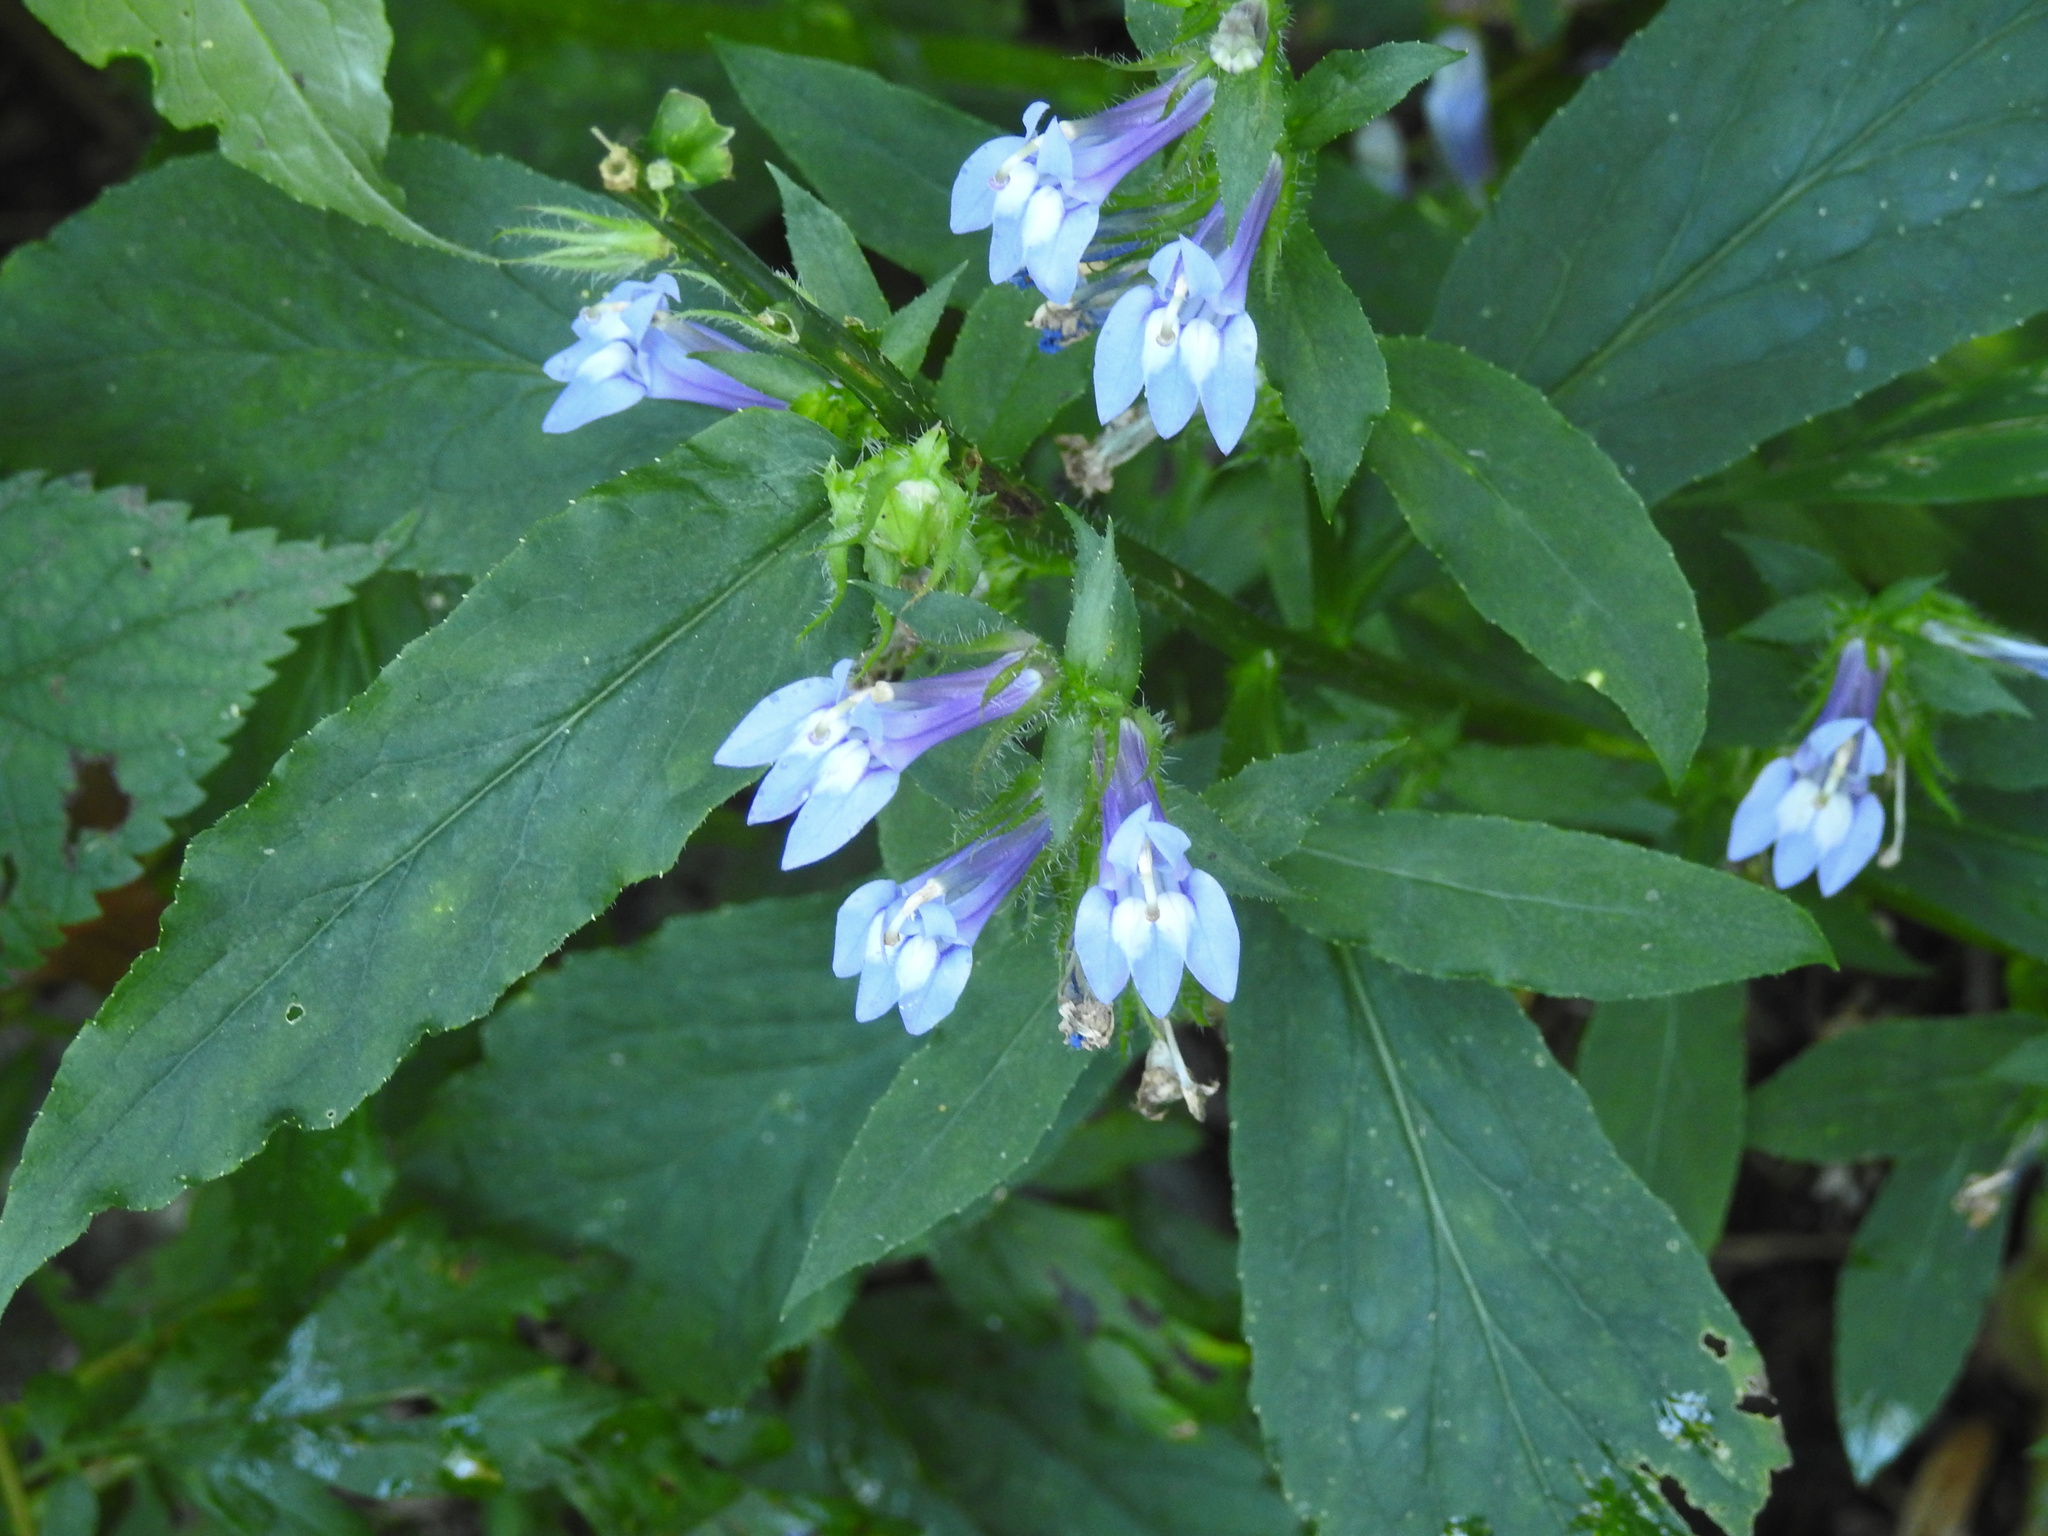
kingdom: Plantae
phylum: Tracheophyta
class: Magnoliopsida
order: Asterales
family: Campanulaceae
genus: Lobelia
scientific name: Lobelia siphilitica
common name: Great lobelia
